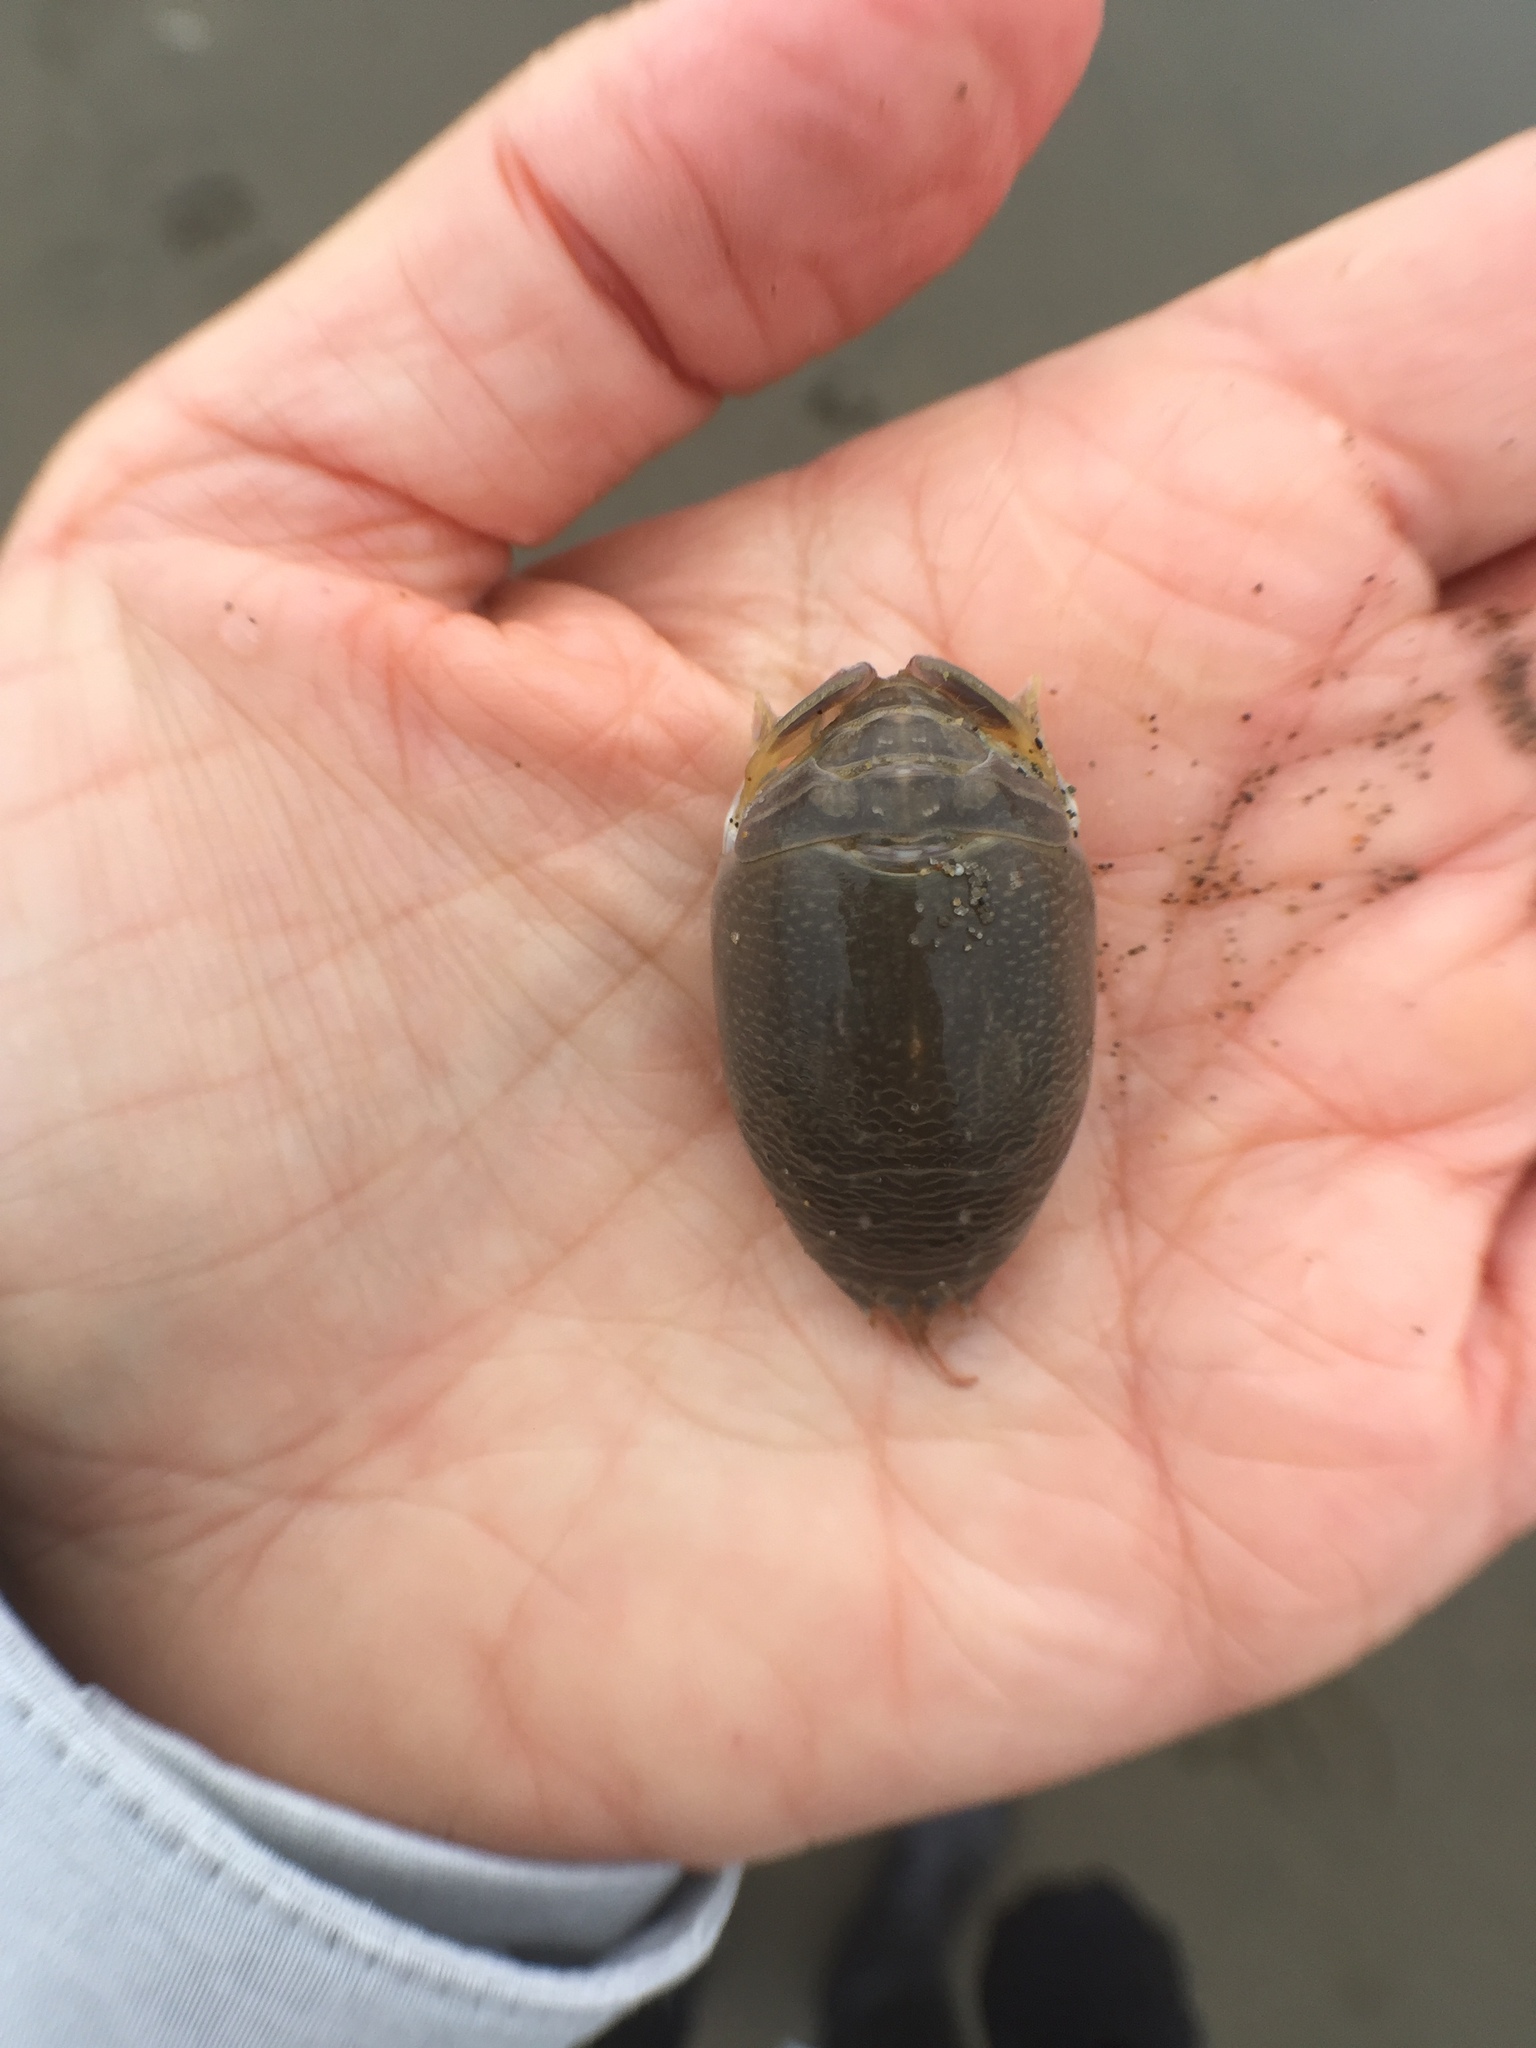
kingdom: Animalia
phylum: Arthropoda
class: Malacostraca
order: Decapoda
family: Hippidae
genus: Emerita
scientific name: Emerita analoga
